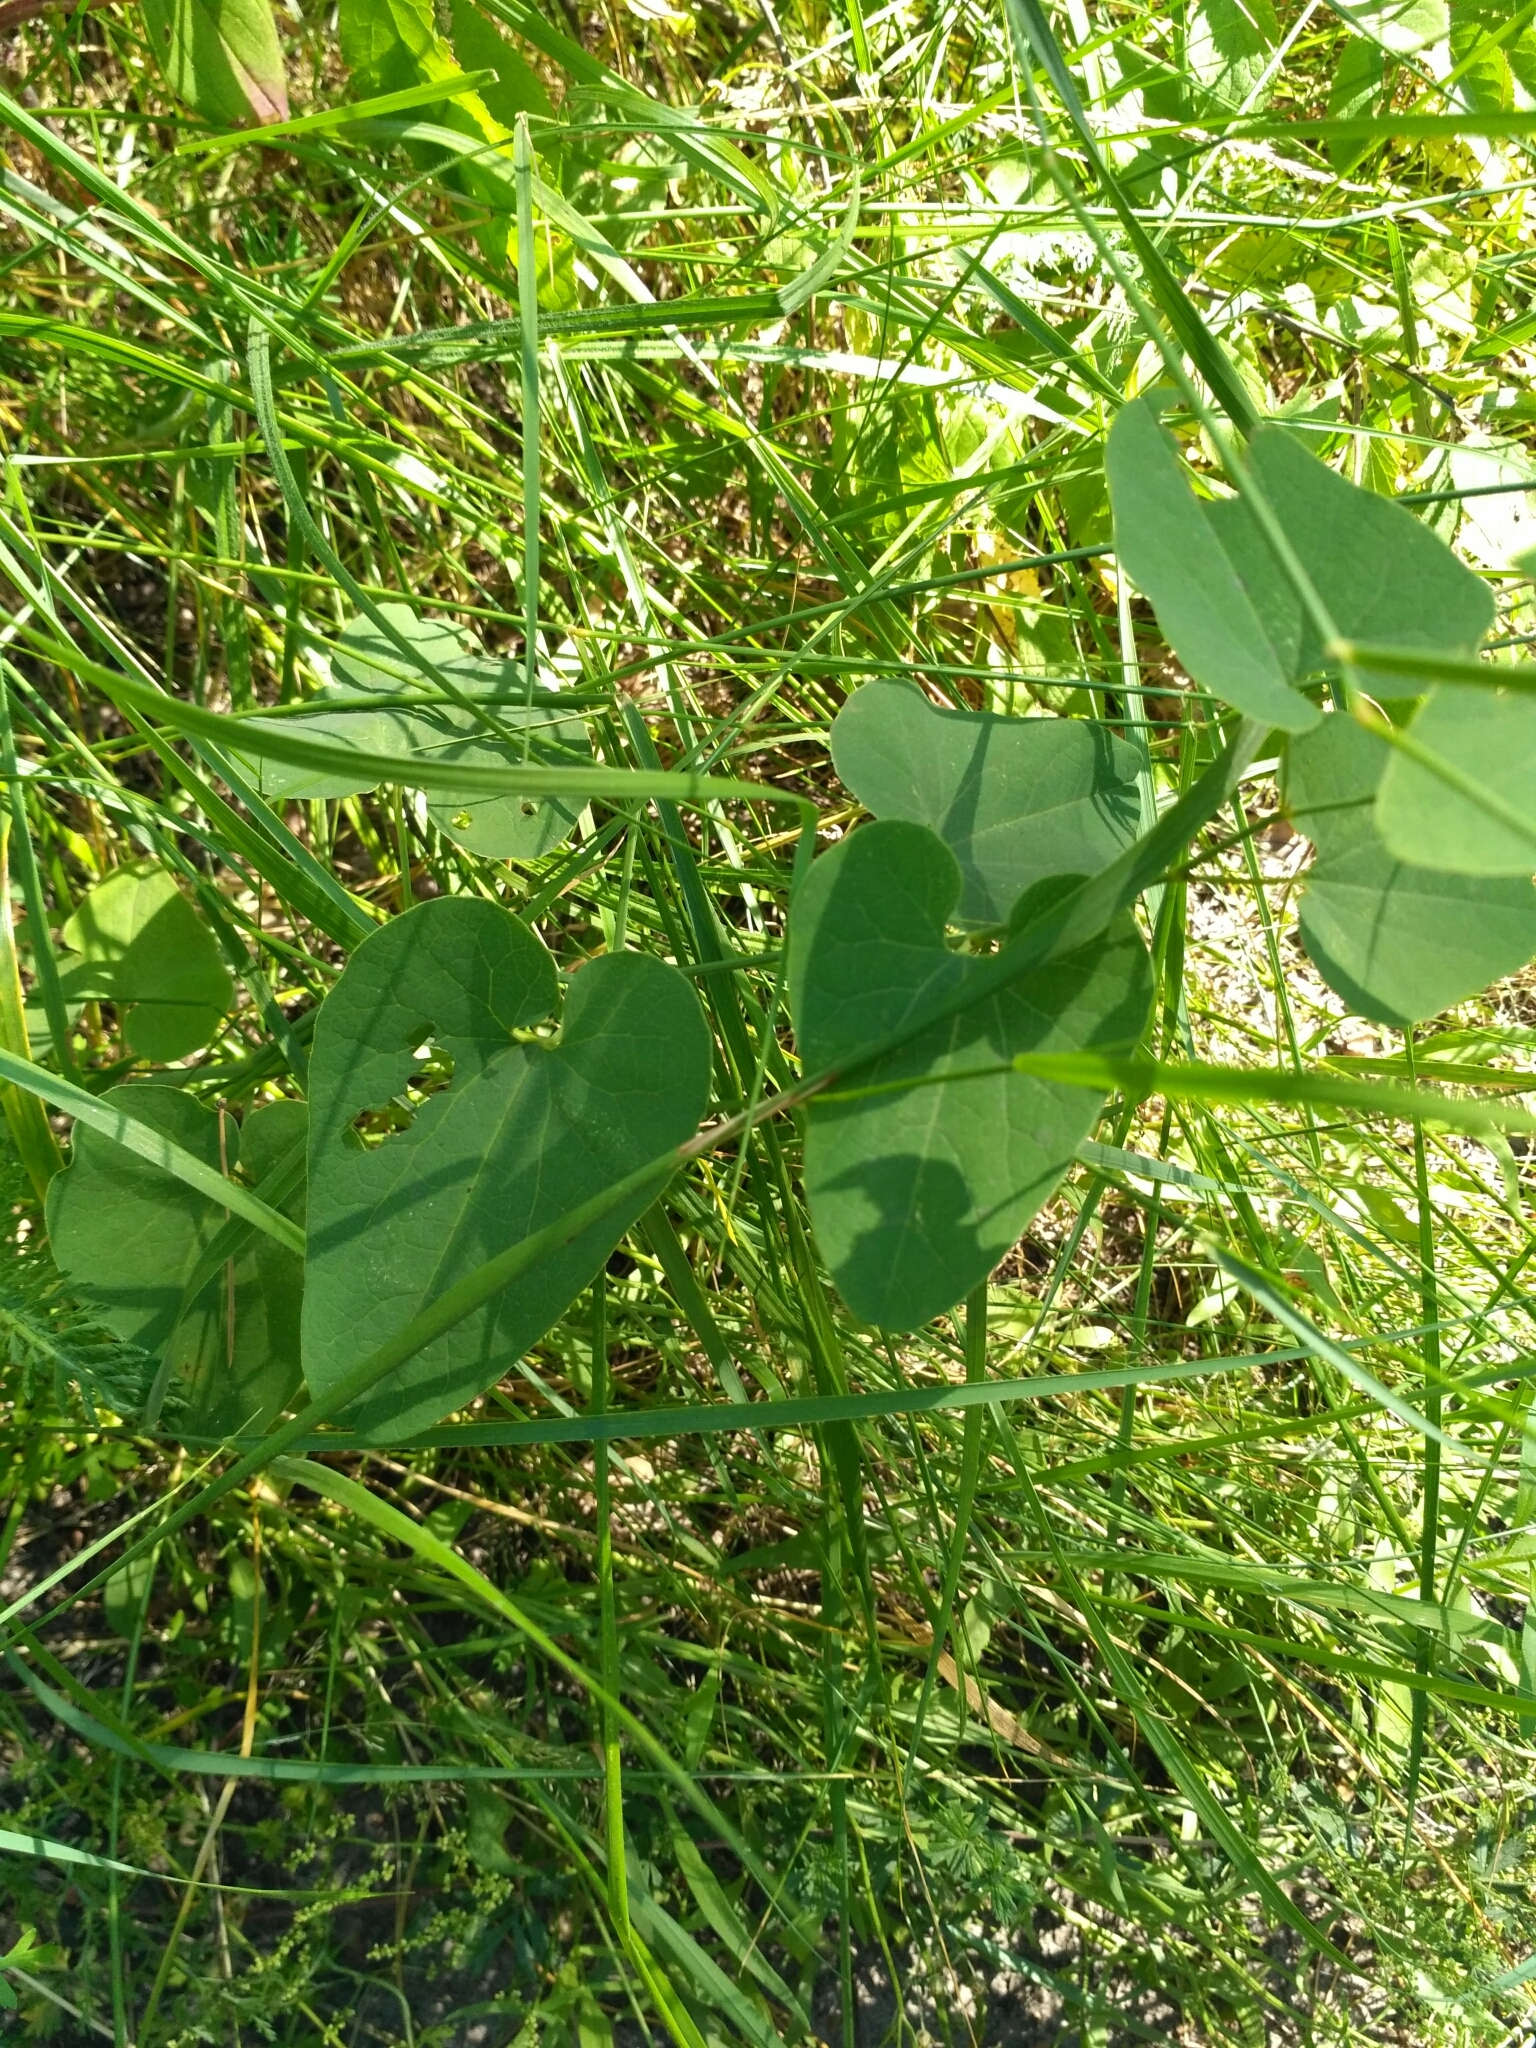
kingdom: Plantae
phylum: Tracheophyta
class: Magnoliopsida
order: Piperales
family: Aristolochiaceae
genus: Aristolochia
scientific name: Aristolochia clematitis
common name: Birthwort
